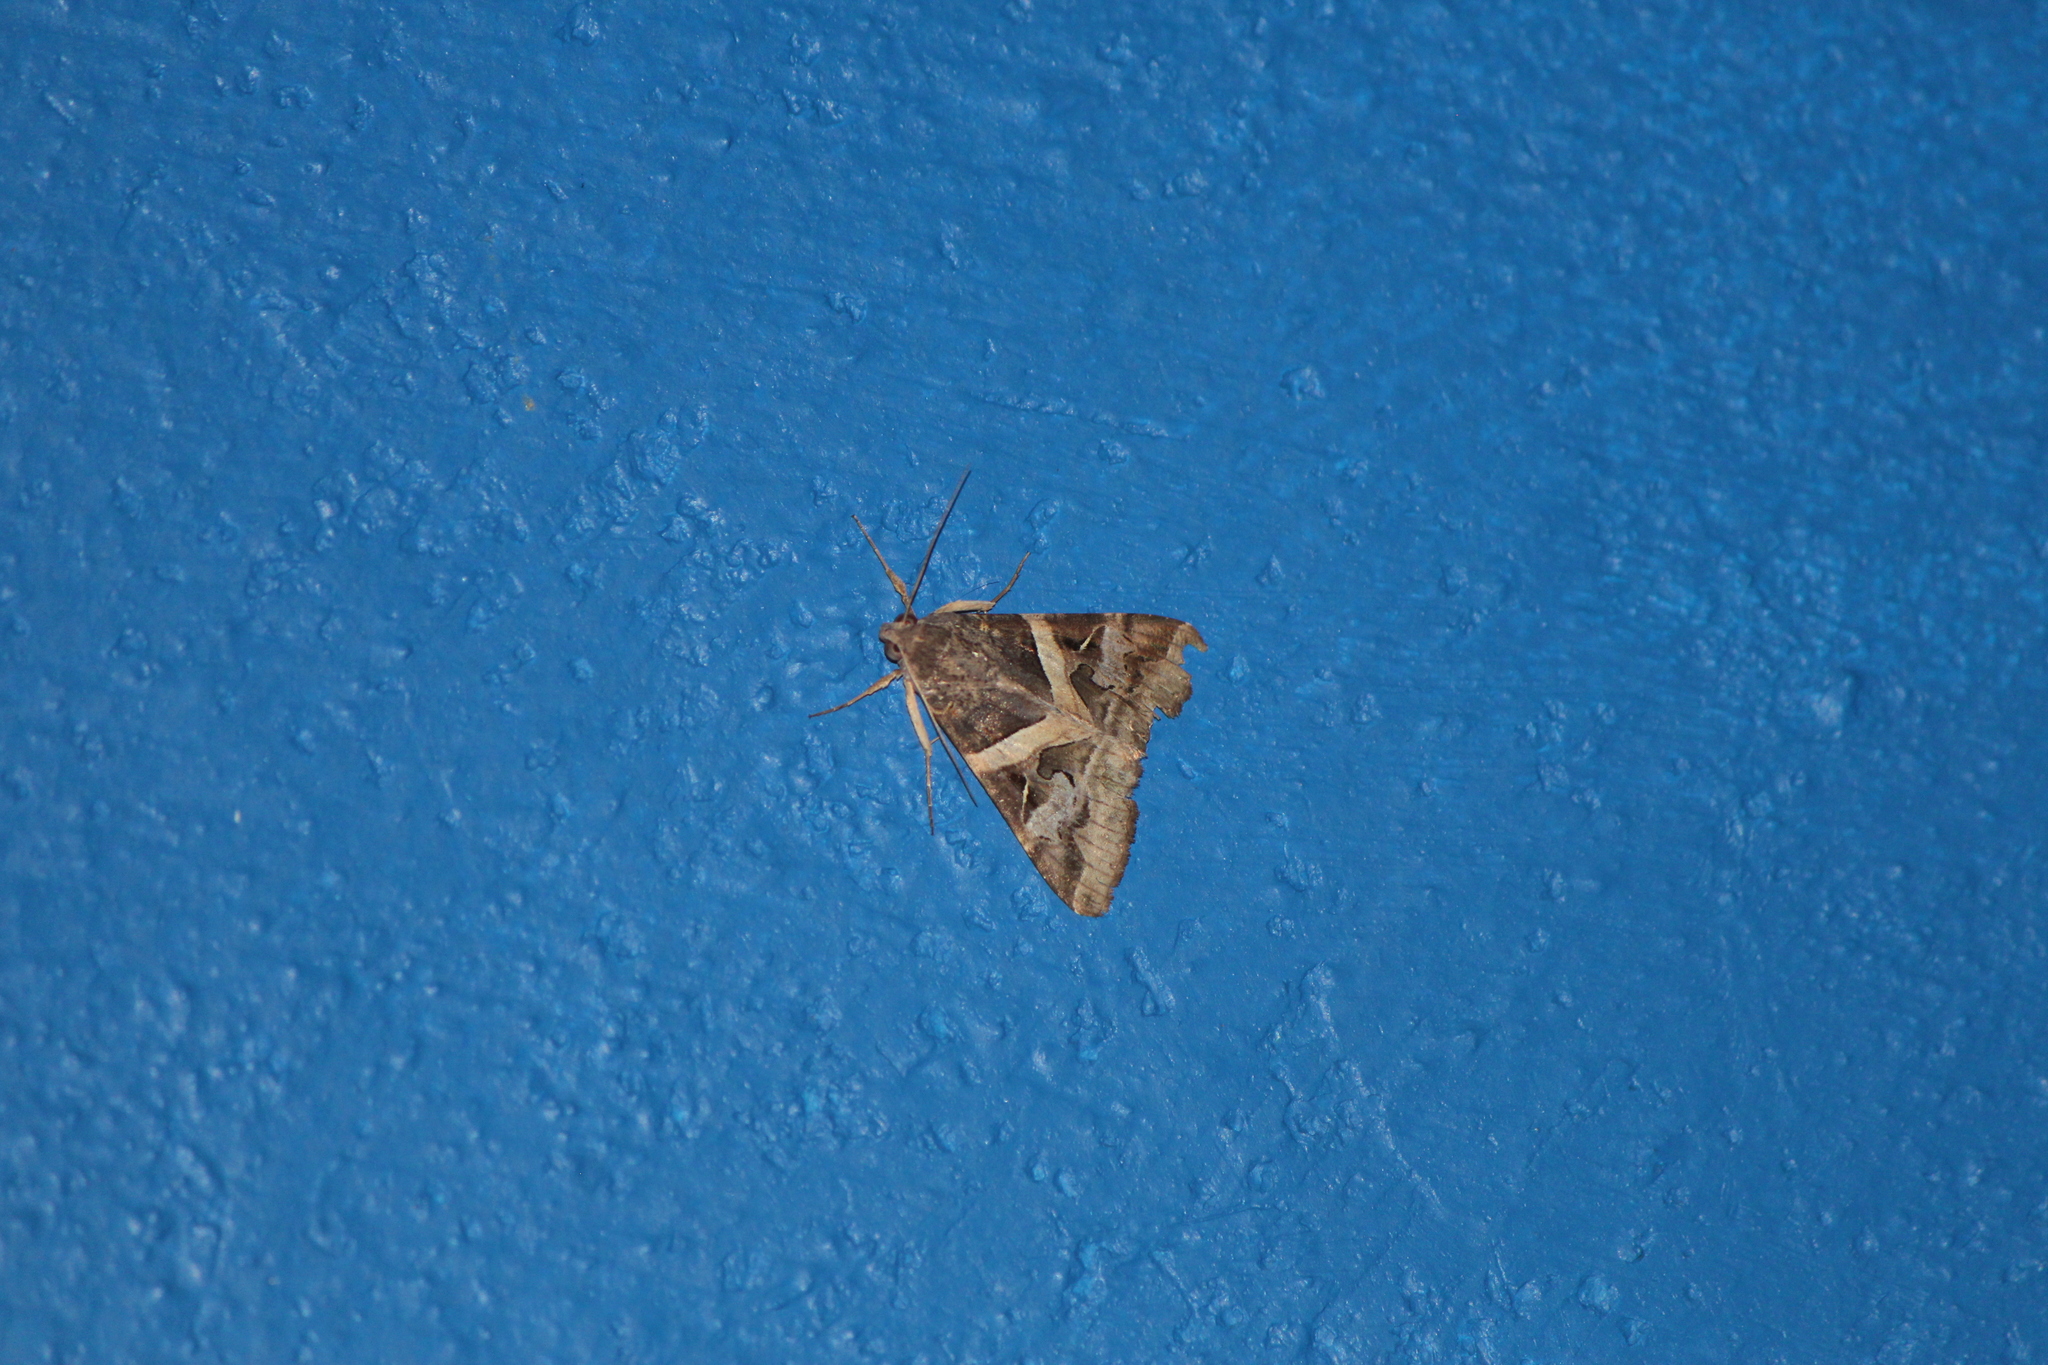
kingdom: Animalia
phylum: Arthropoda
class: Insecta
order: Lepidoptera
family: Erebidae
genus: Melipotis
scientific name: Melipotis indomita
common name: Moth
